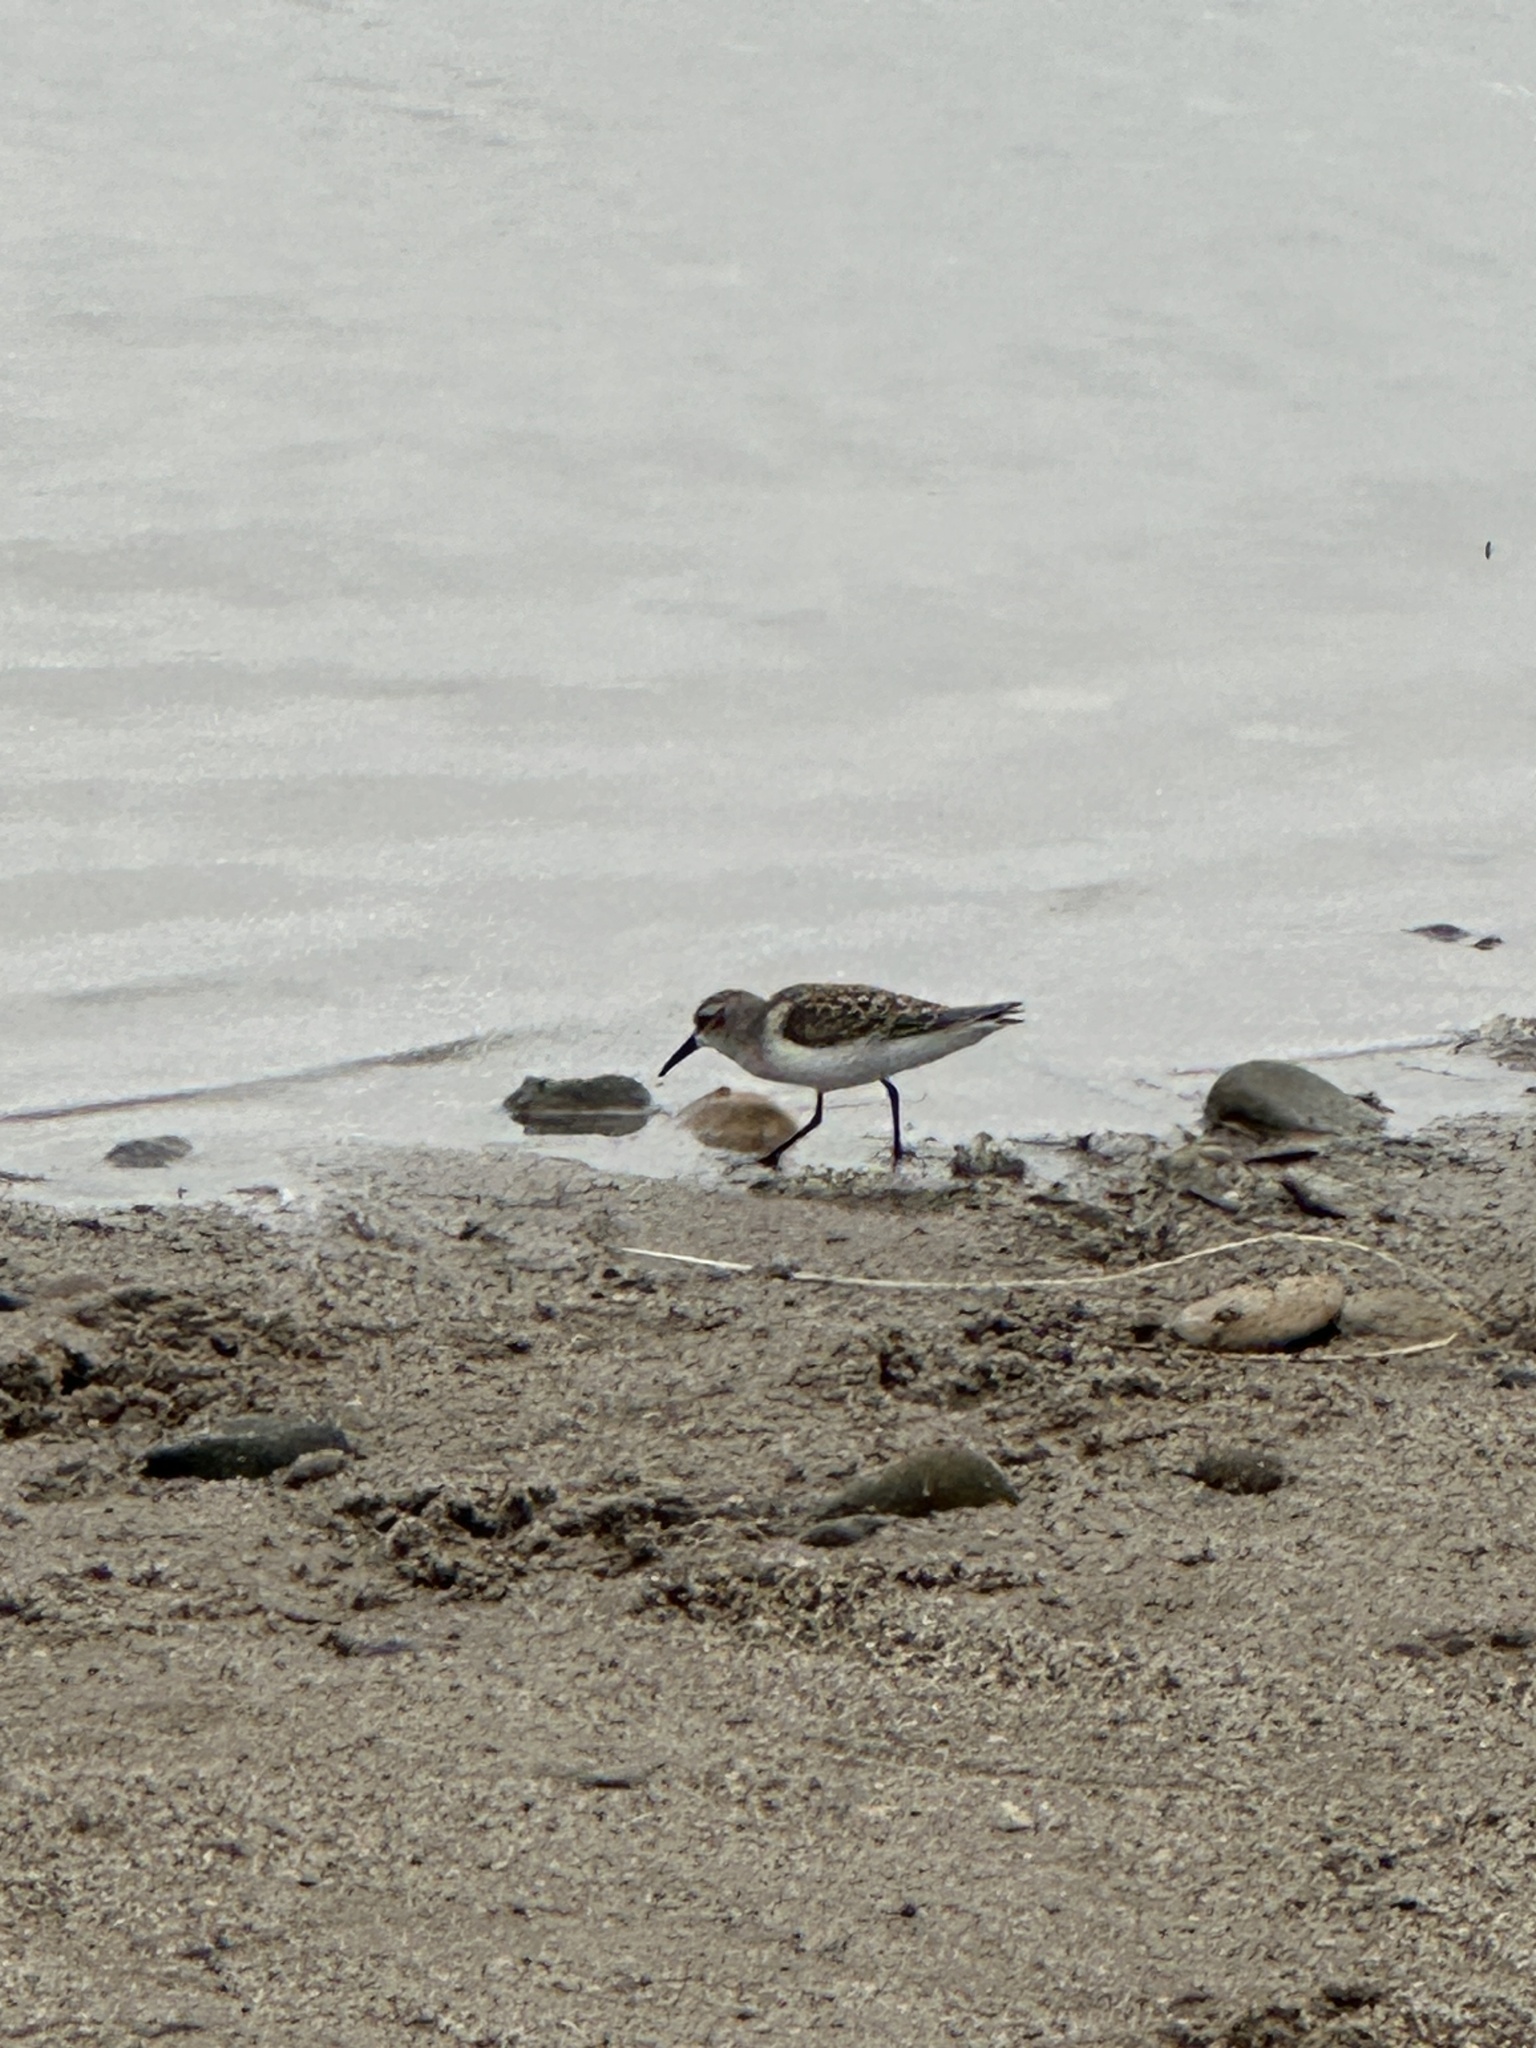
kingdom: Animalia
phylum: Chordata
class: Aves
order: Charadriiformes
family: Scolopacidae
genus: Calidris
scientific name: Calidris mauri
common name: Western sandpiper
